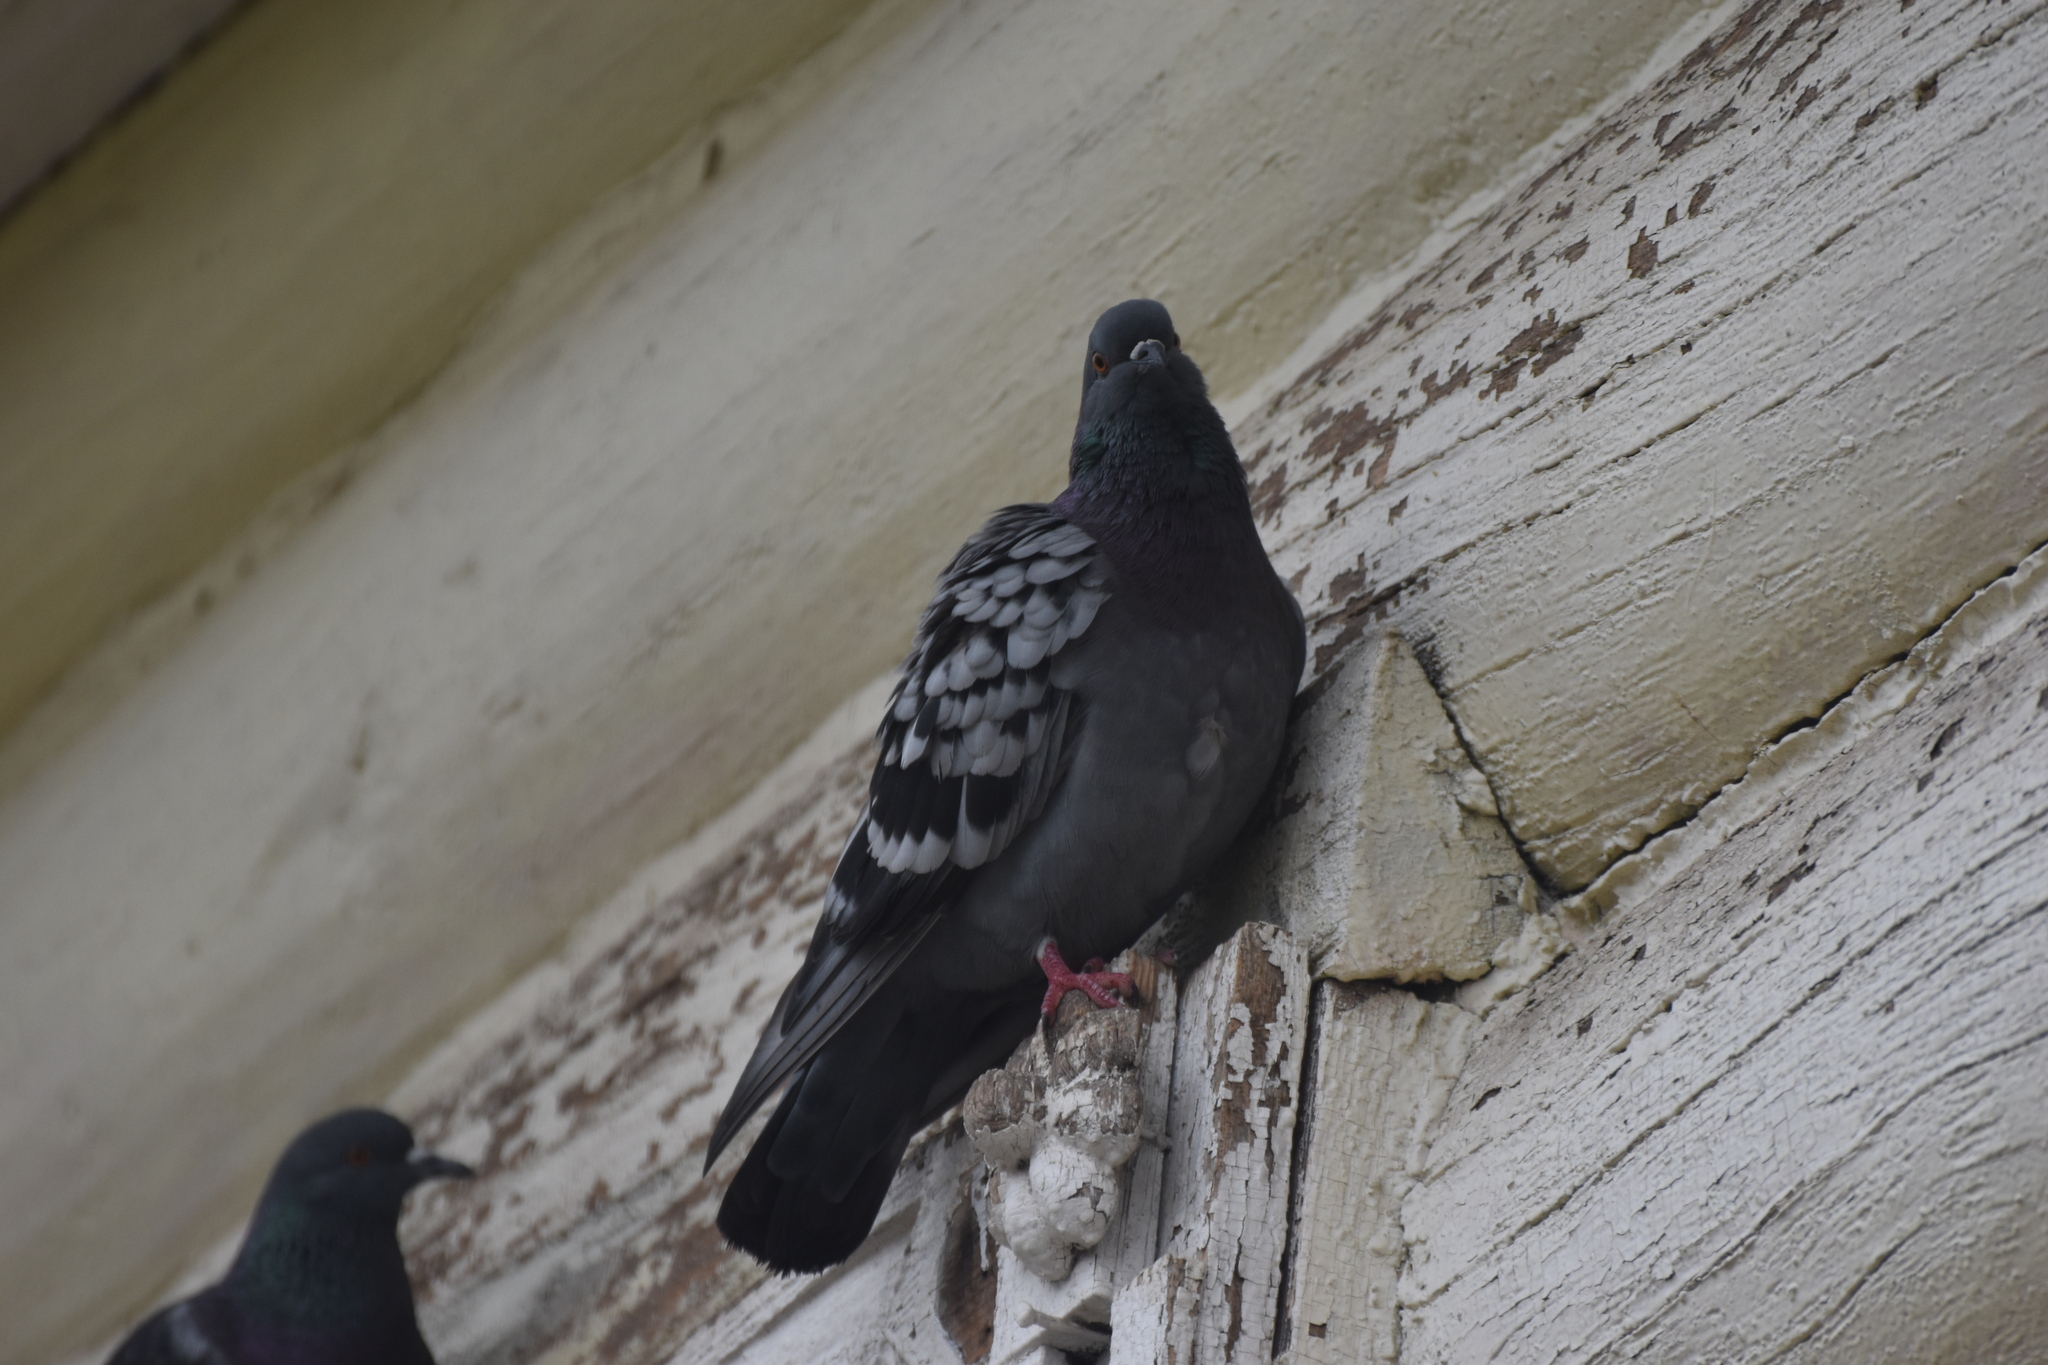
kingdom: Animalia
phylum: Chordata
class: Aves
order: Columbiformes
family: Columbidae
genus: Columba
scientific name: Columba livia
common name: Rock pigeon
